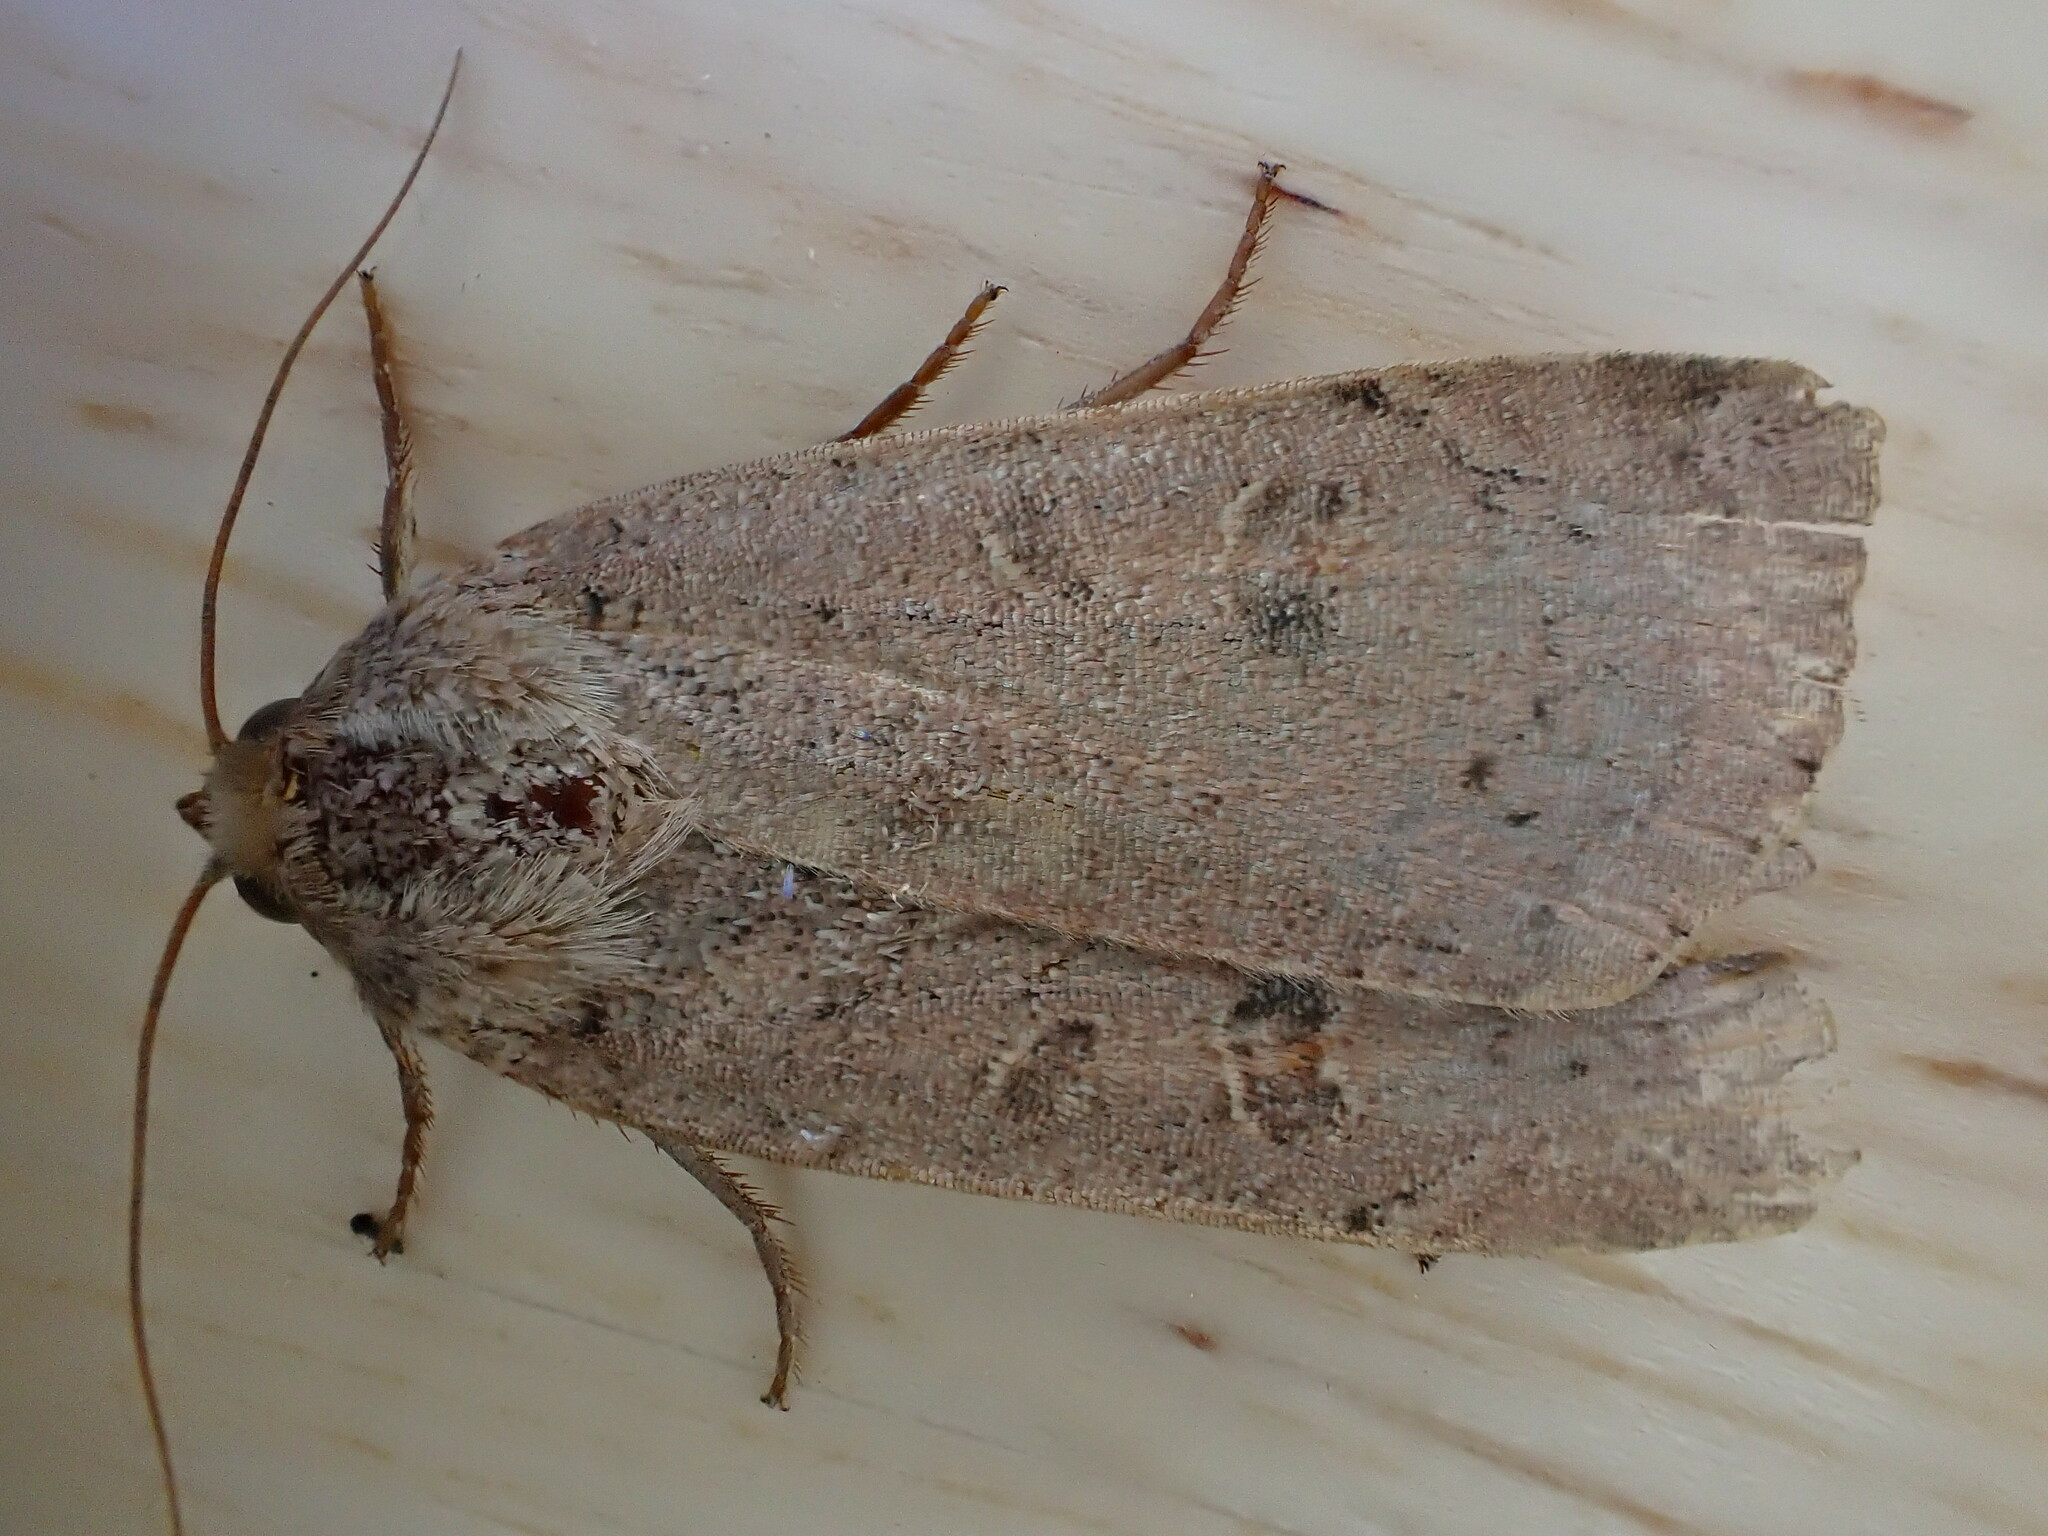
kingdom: Animalia
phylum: Arthropoda
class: Insecta
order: Lepidoptera
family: Noctuidae
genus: Noctua
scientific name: Noctua comes
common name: Lesser yellow underwing
